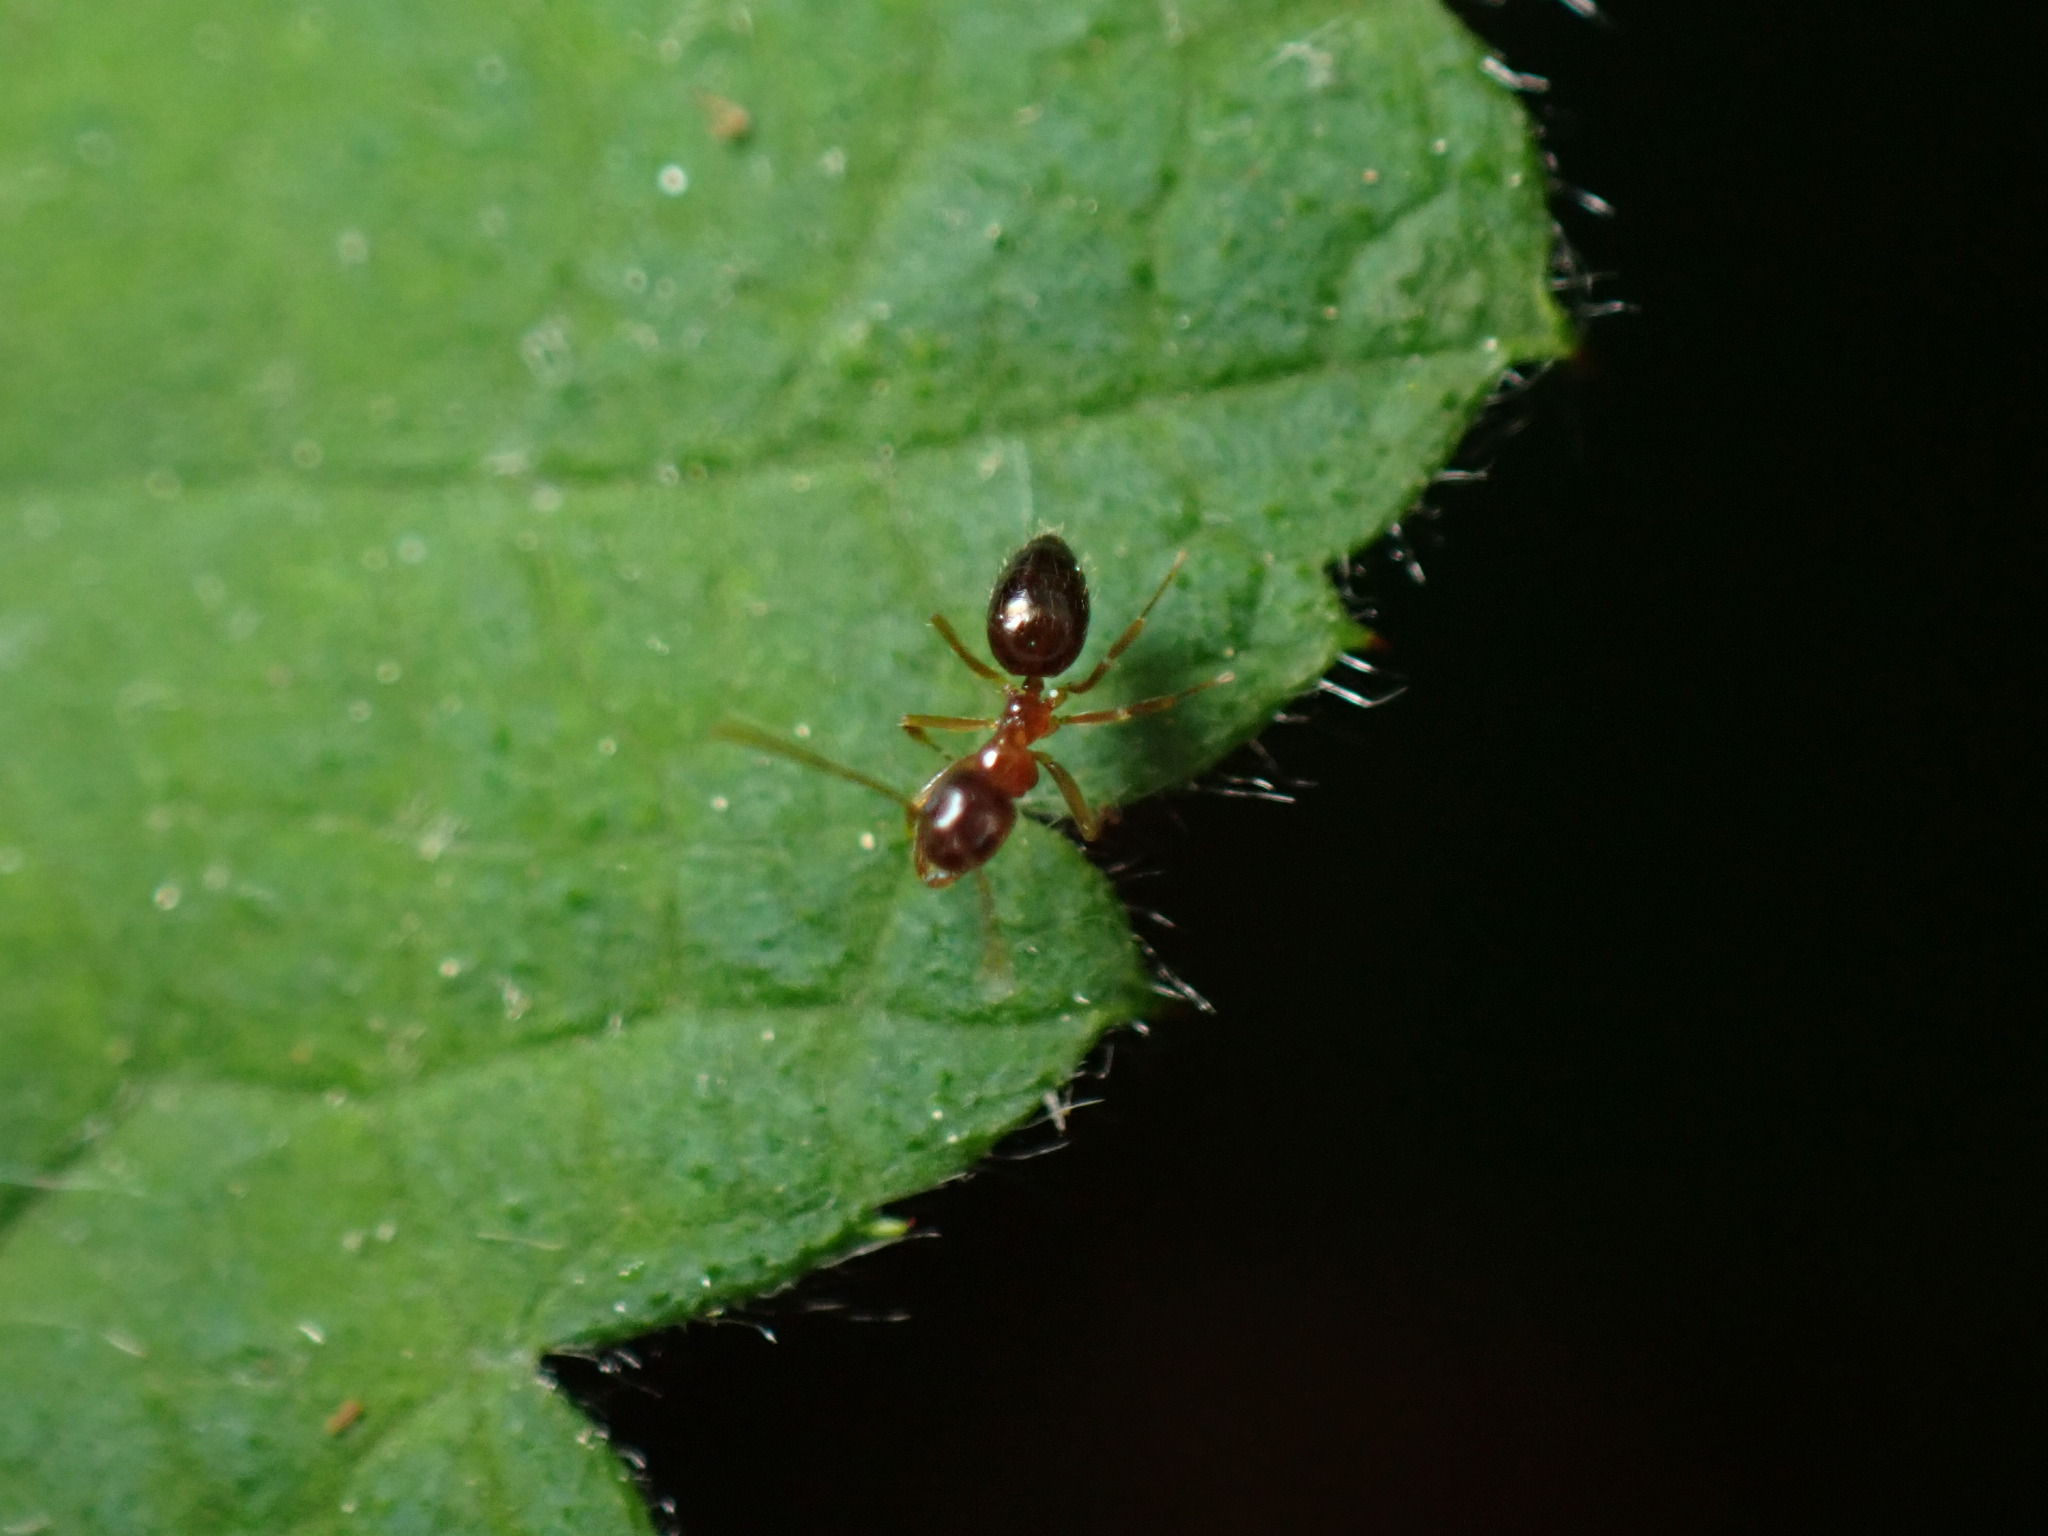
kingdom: Animalia
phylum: Arthropoda
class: Insecta
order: Hymenoptera
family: Formicidae
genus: Paratrechina
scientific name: Paratrechina flavipes
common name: Eastern asian formicine ant
